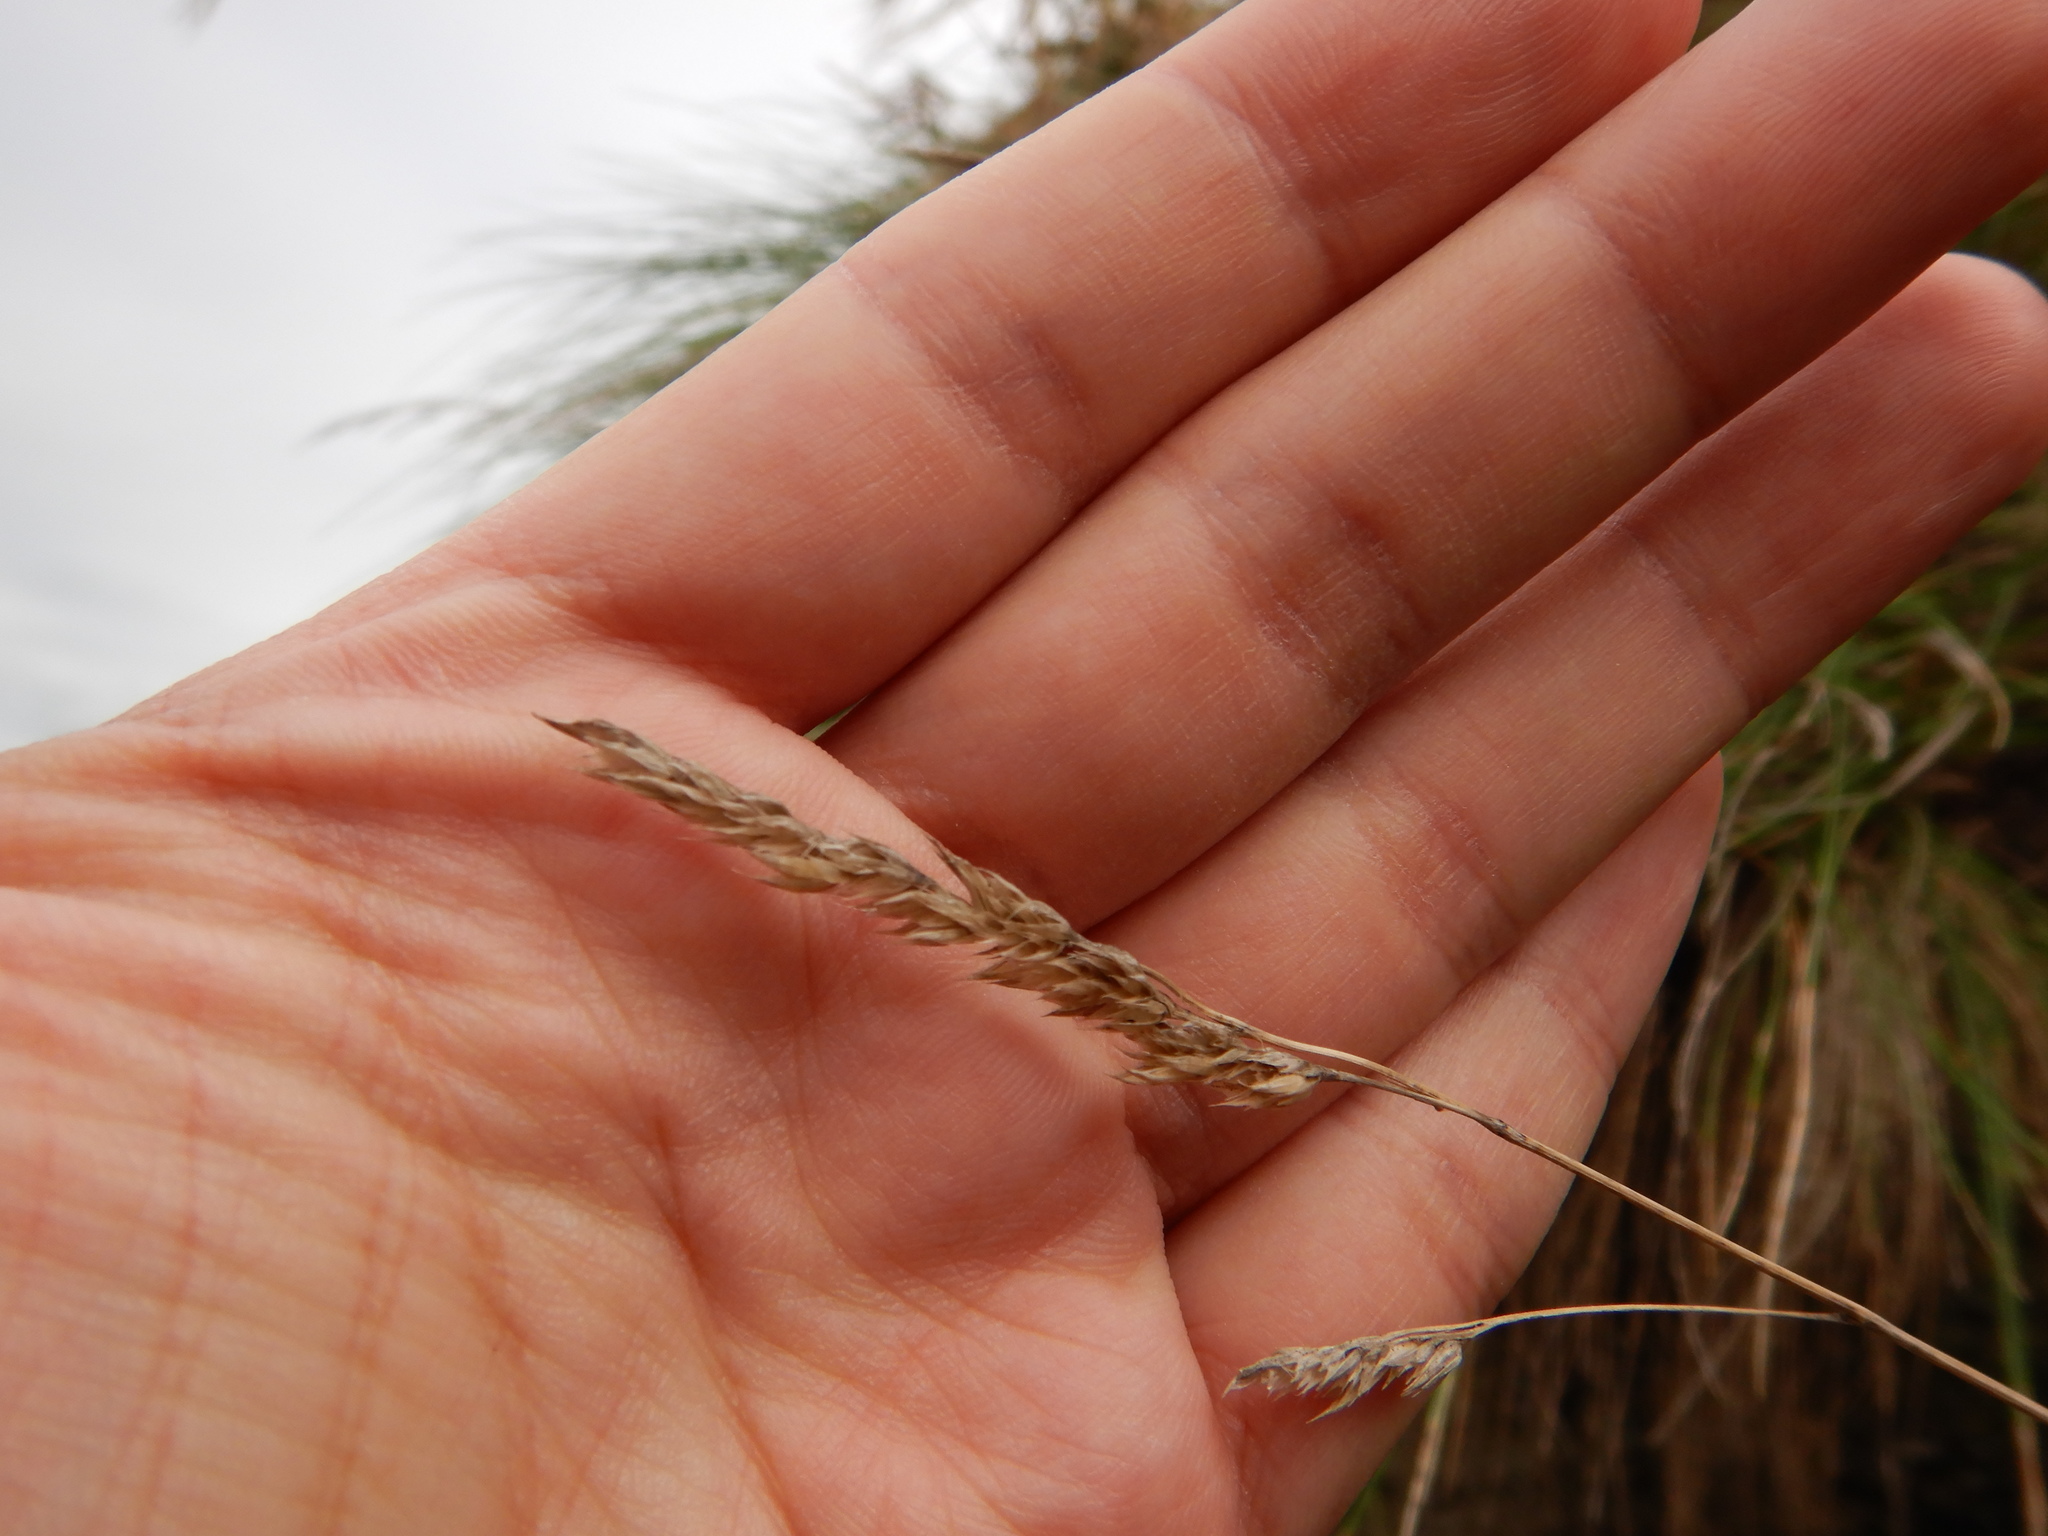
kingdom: Plantae
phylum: Tracheophyta
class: Liliopsida
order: Poales
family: Poaceae
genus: Festuca
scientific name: Festuca petraea
